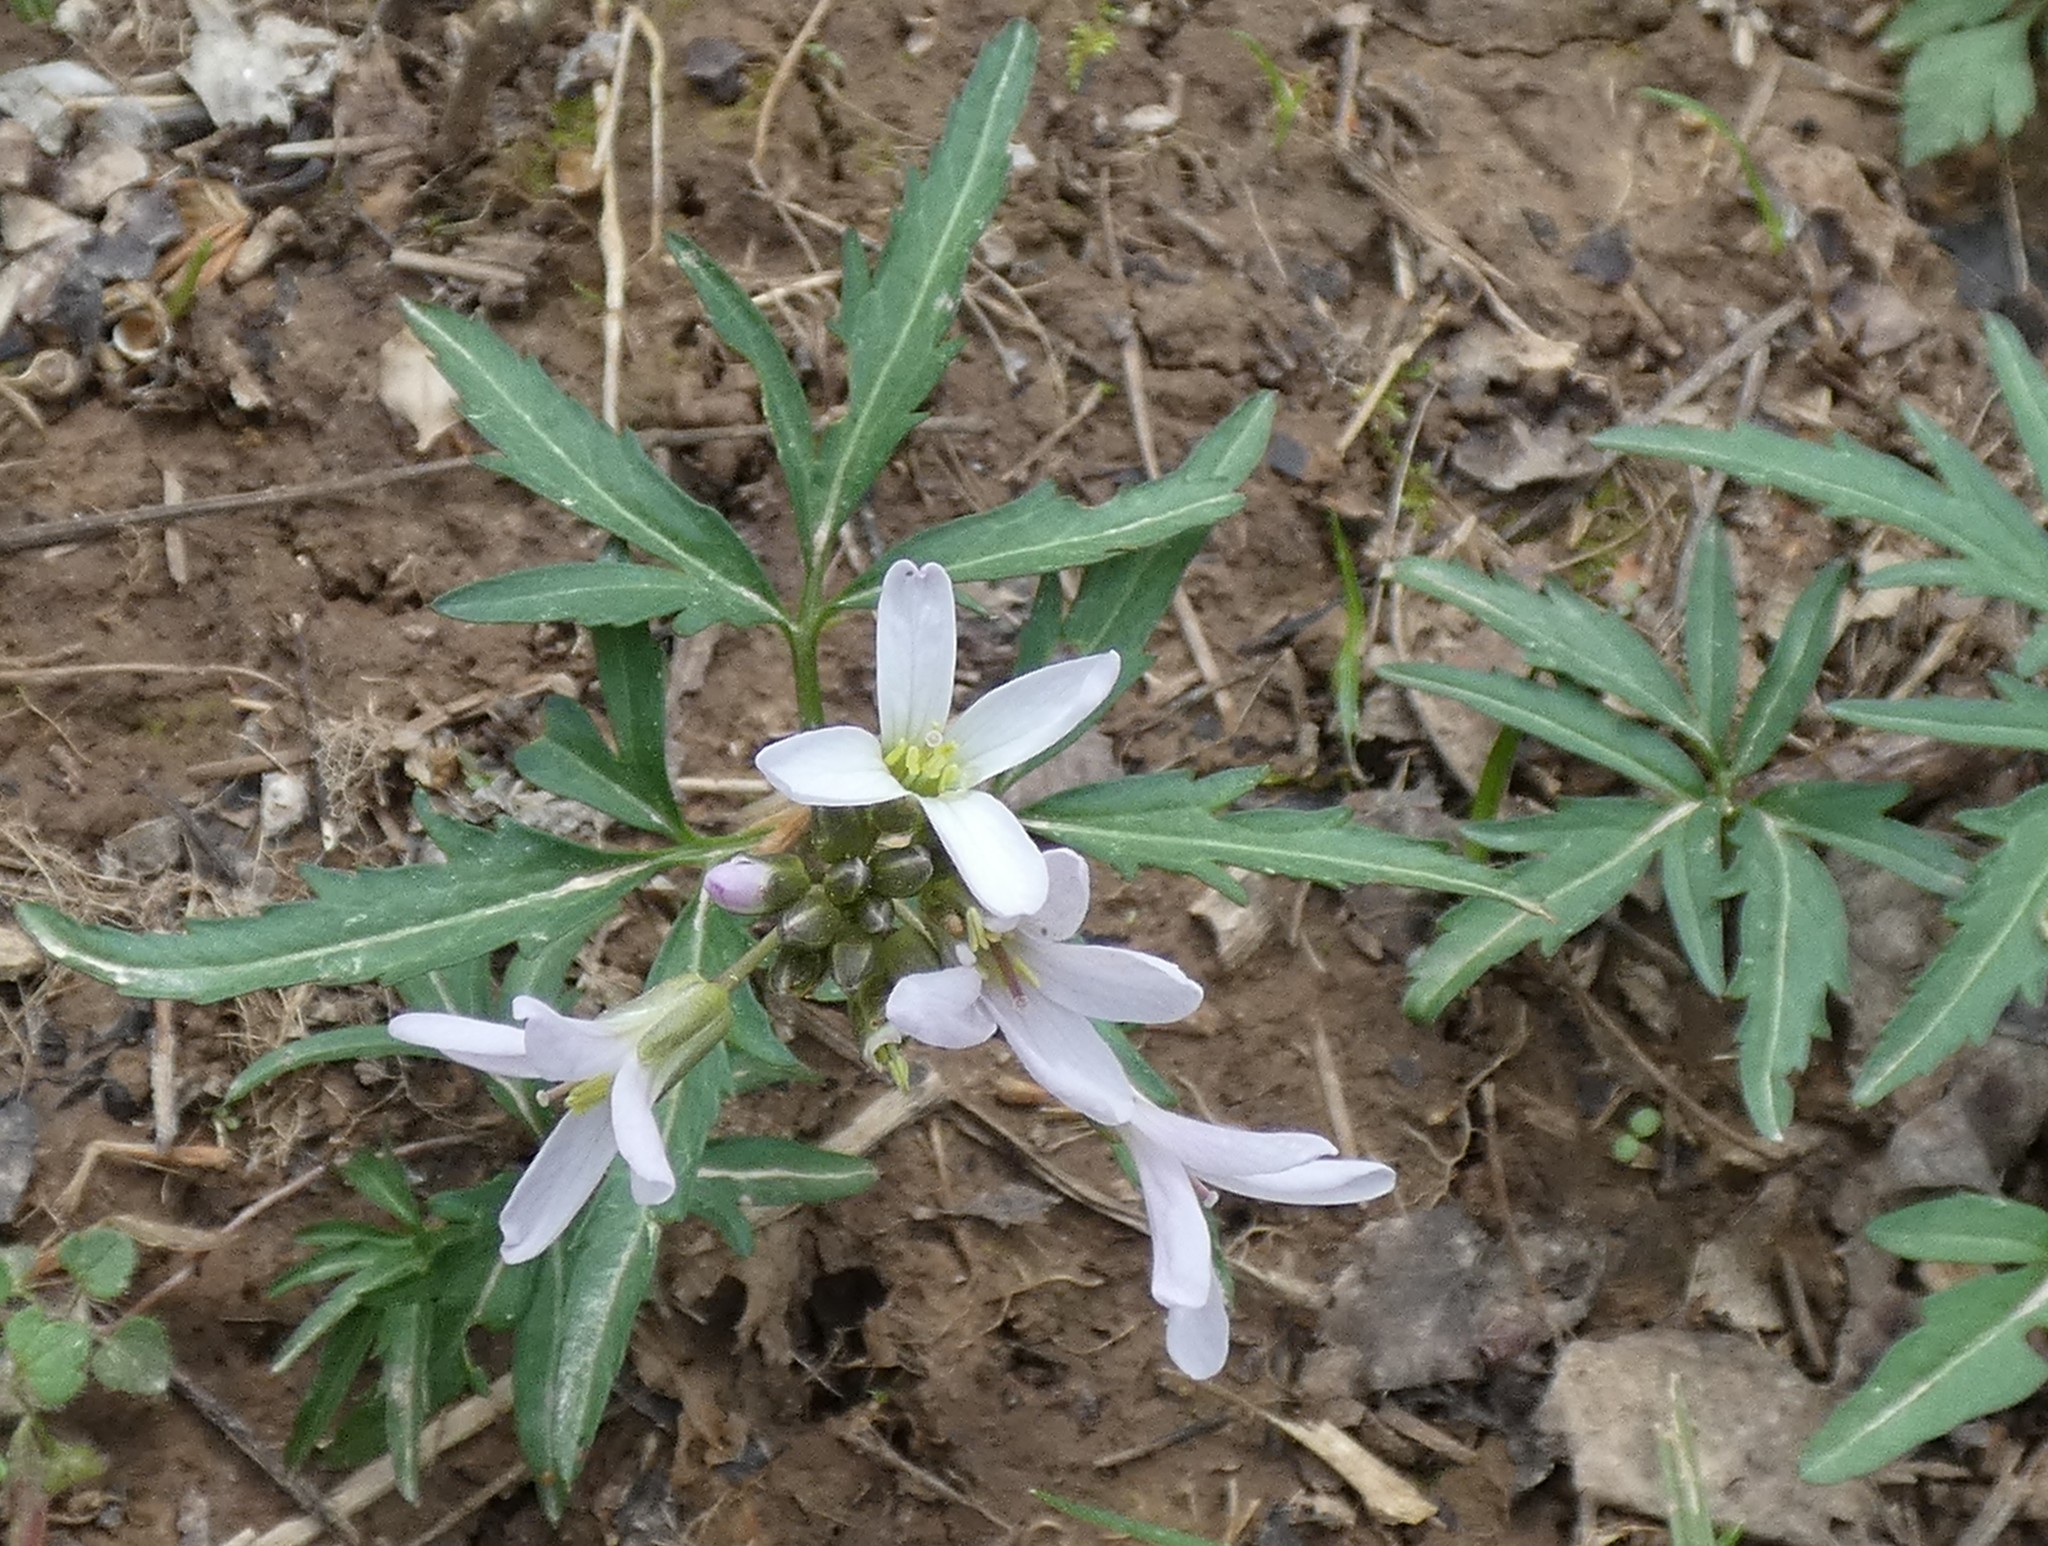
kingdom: Plantae
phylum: Tracheophyta
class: Magnoliopsida
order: Brassicales
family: Brassicaceae
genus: Cardamine
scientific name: Cardamine concatenata
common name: Cut-leaf toothcup
